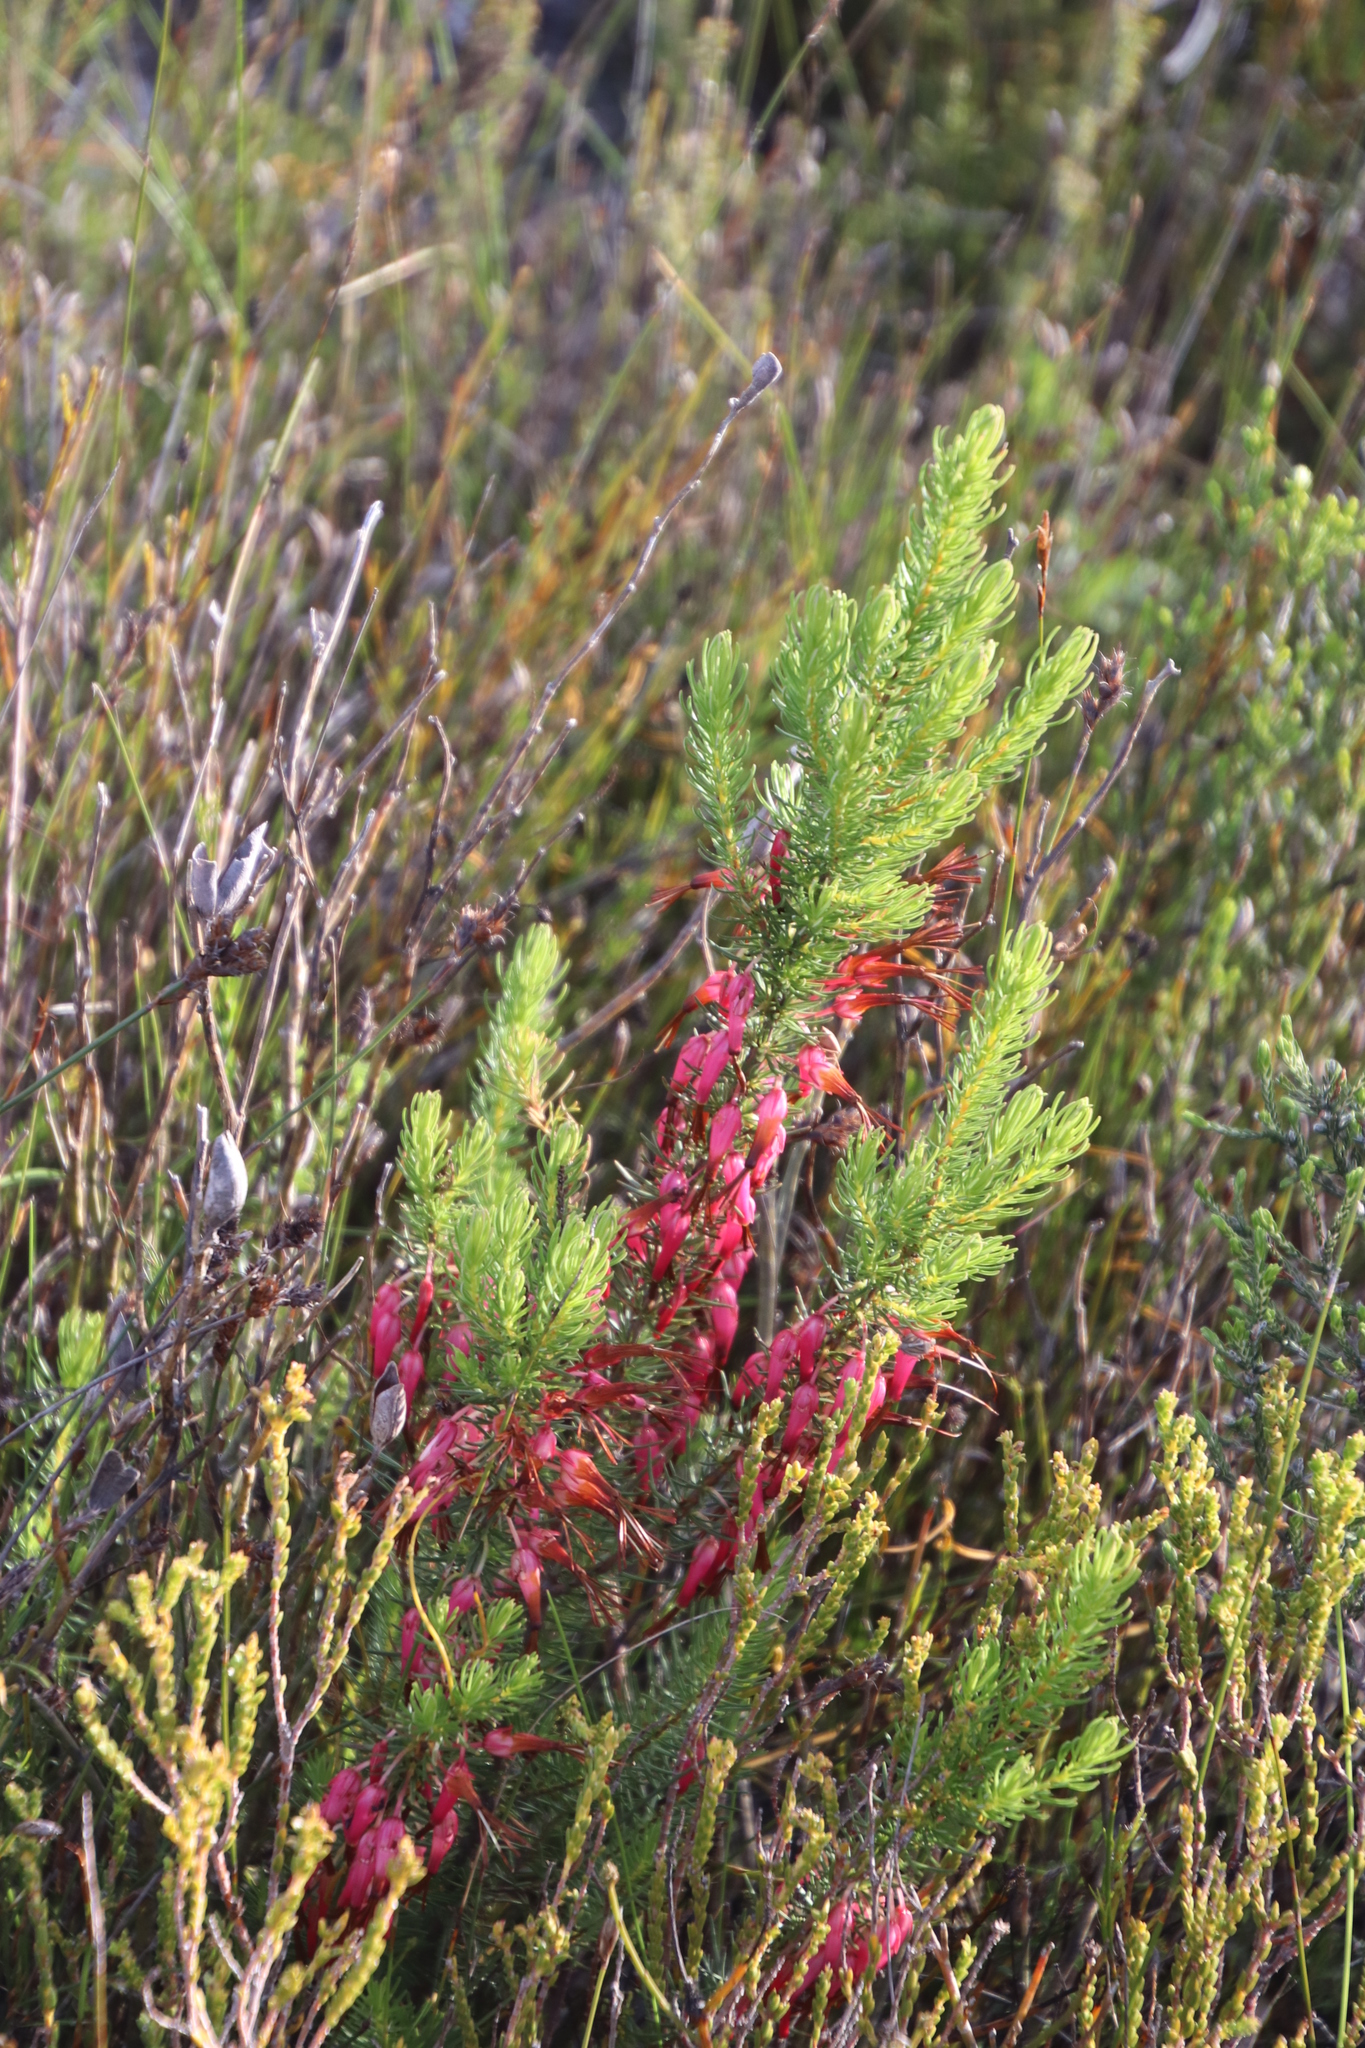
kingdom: Plantae
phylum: Tracheophyta
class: Magnoliopsida
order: Ericales
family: Ericaceae
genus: Erica
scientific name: Erica plukenetii
